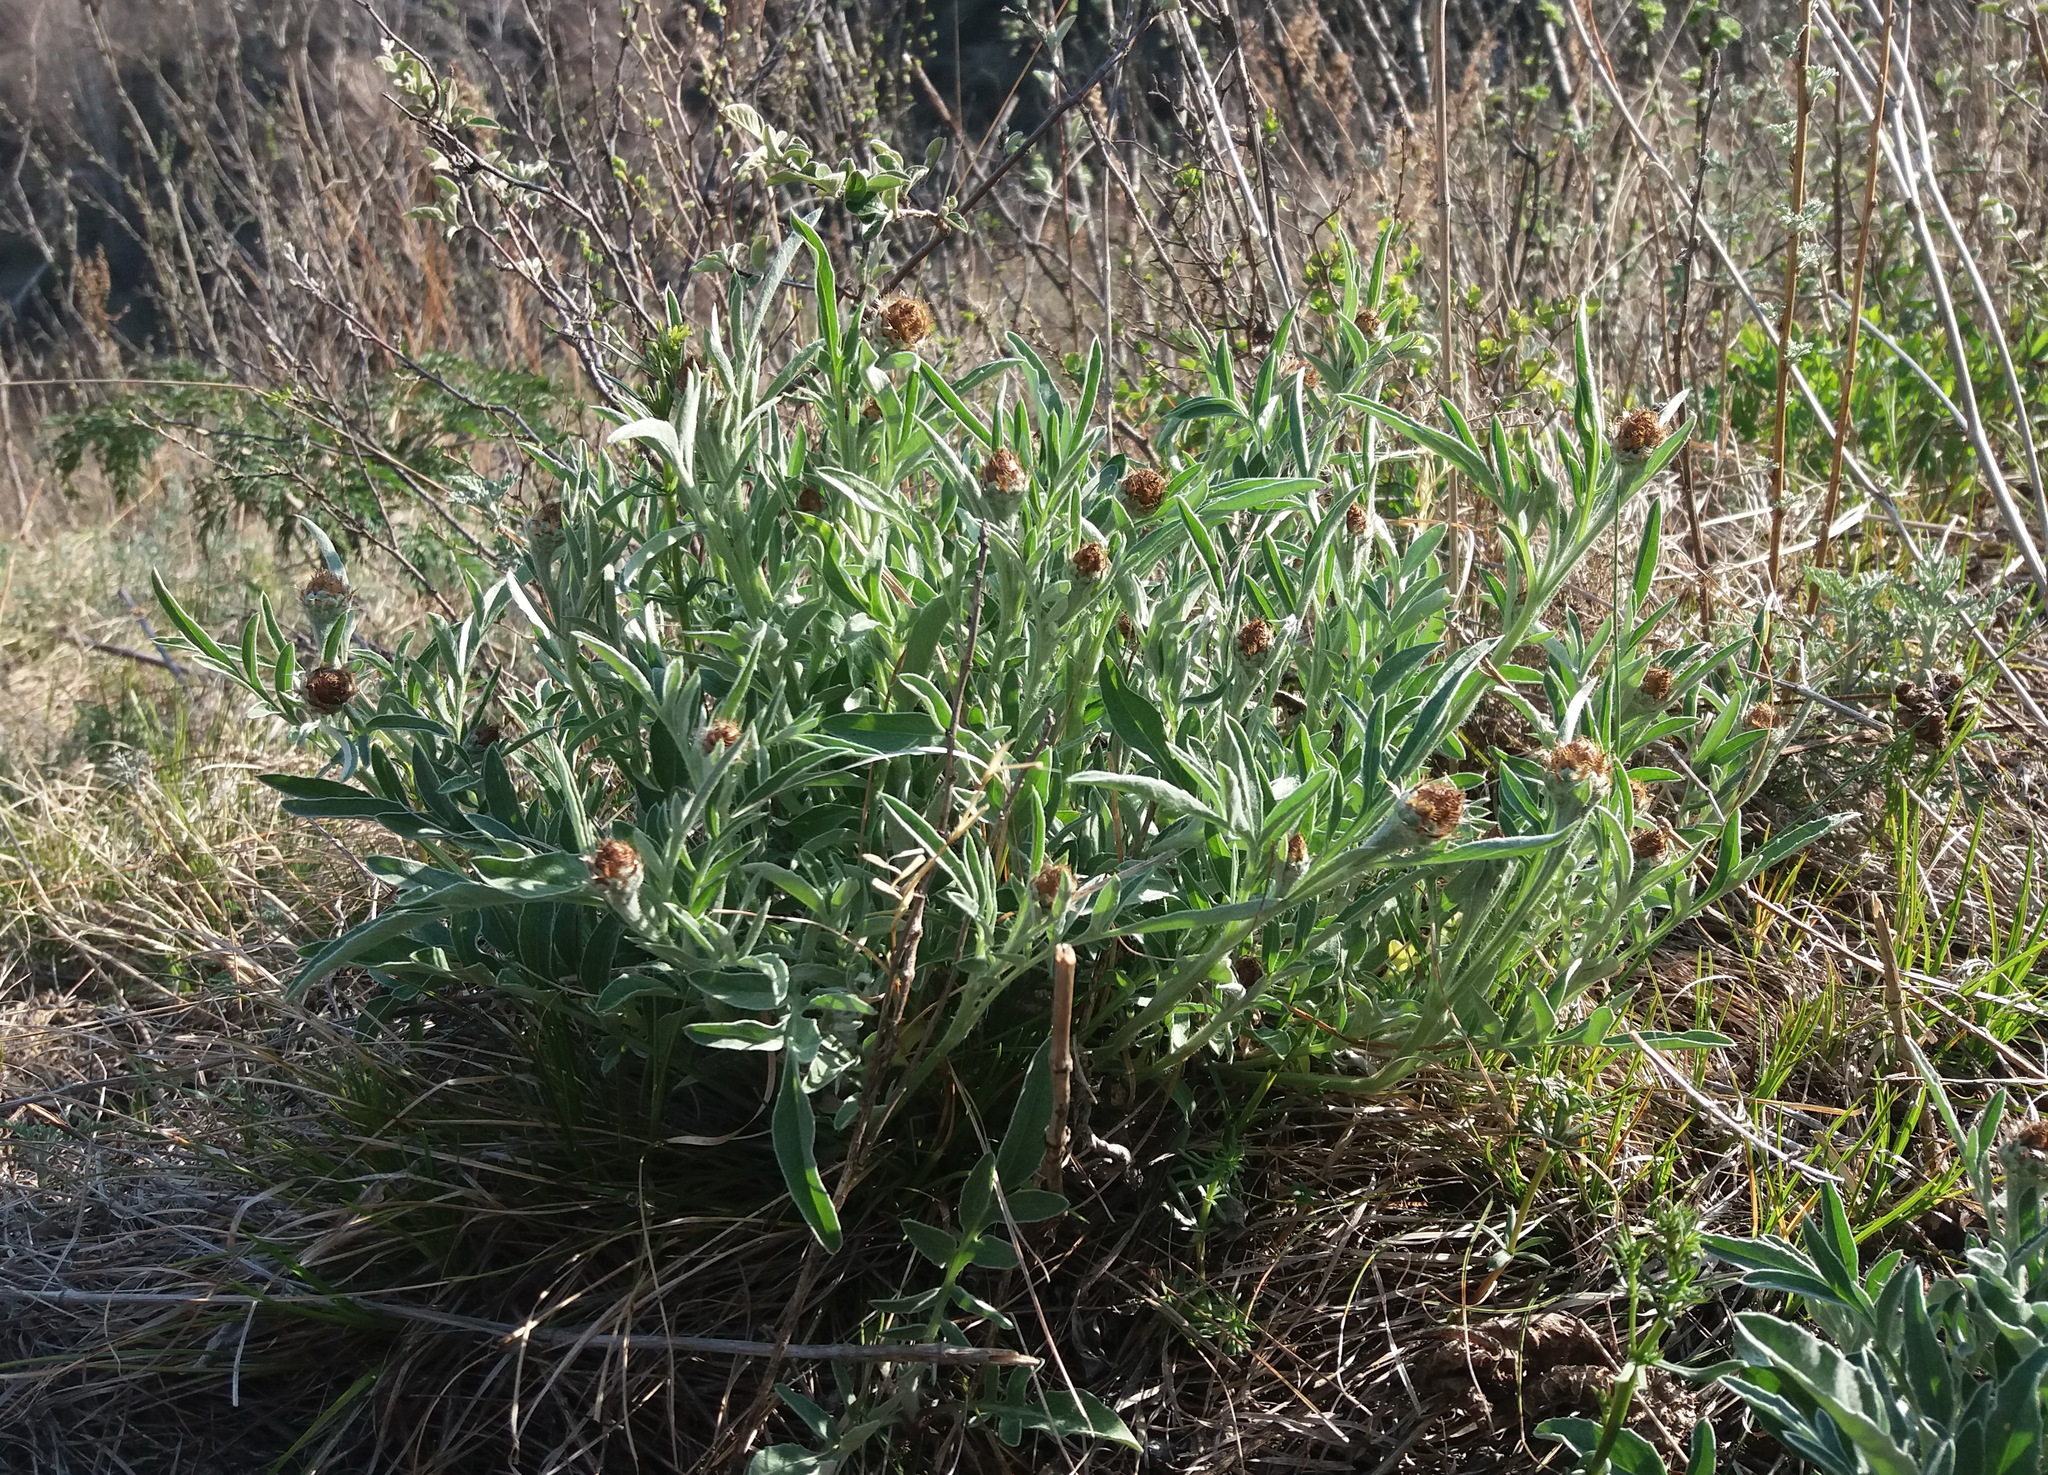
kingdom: Plantae
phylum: Tracheophyta
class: Magnoliopsida
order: Asterales
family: Asteraceae
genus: Psephellus
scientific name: Psephellus sibiricus
